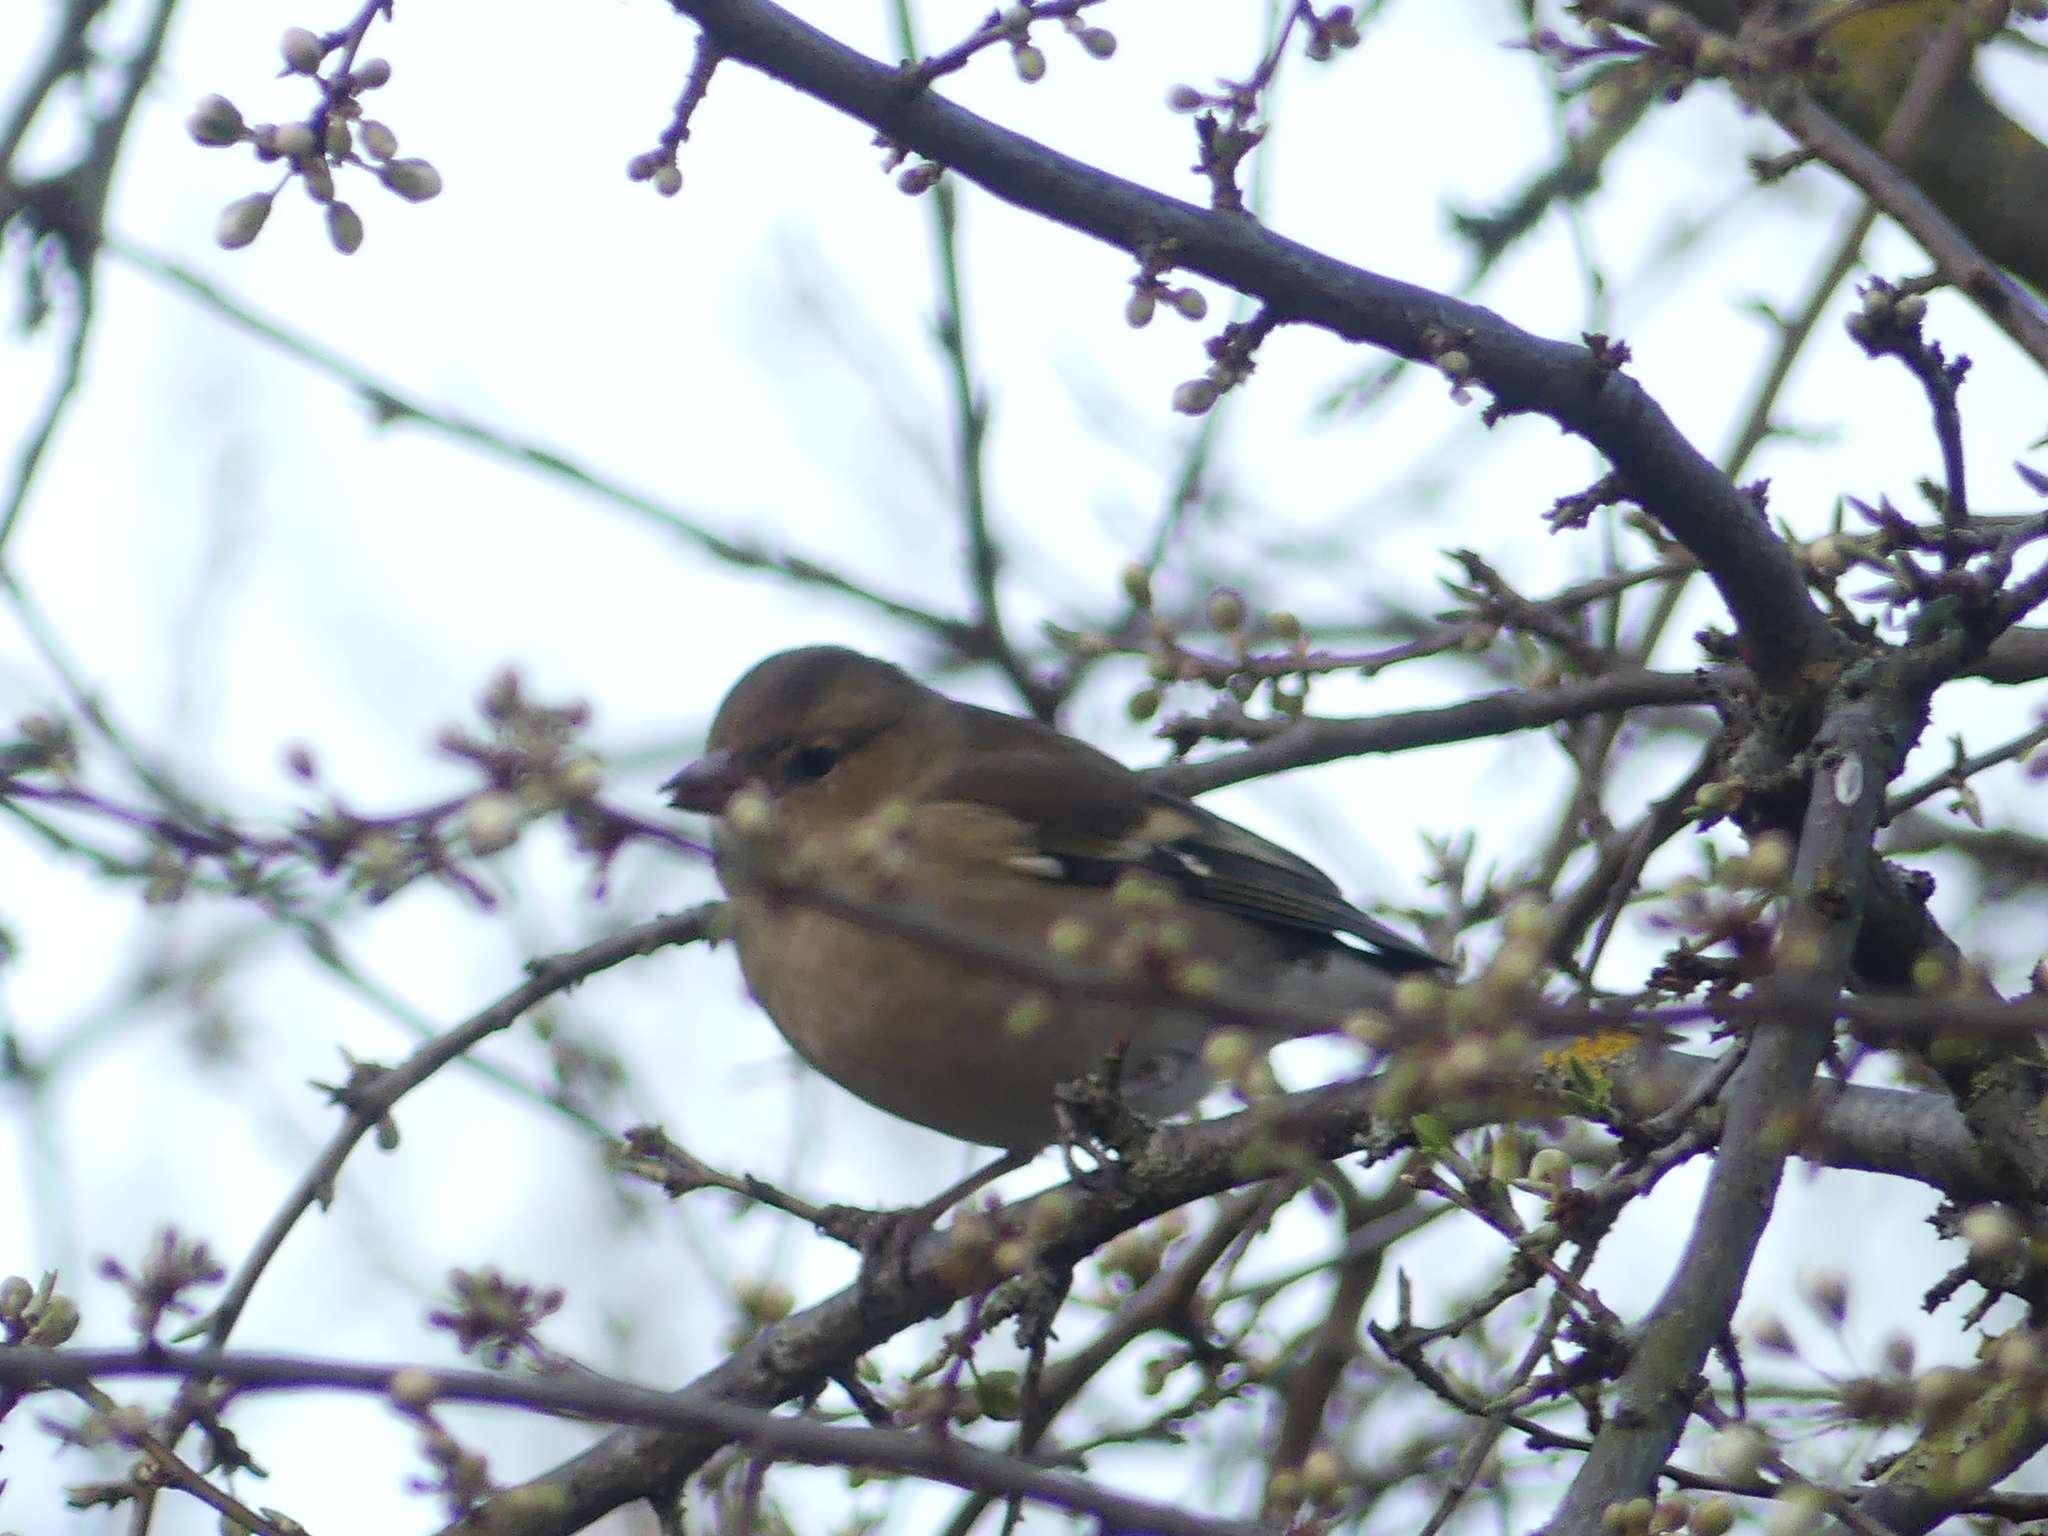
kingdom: Animalia
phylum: Chordata
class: Aves
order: Passeriformes
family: Fringillidae
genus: Fringilla
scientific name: Fringilla coelebs
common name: Common chaffinch
